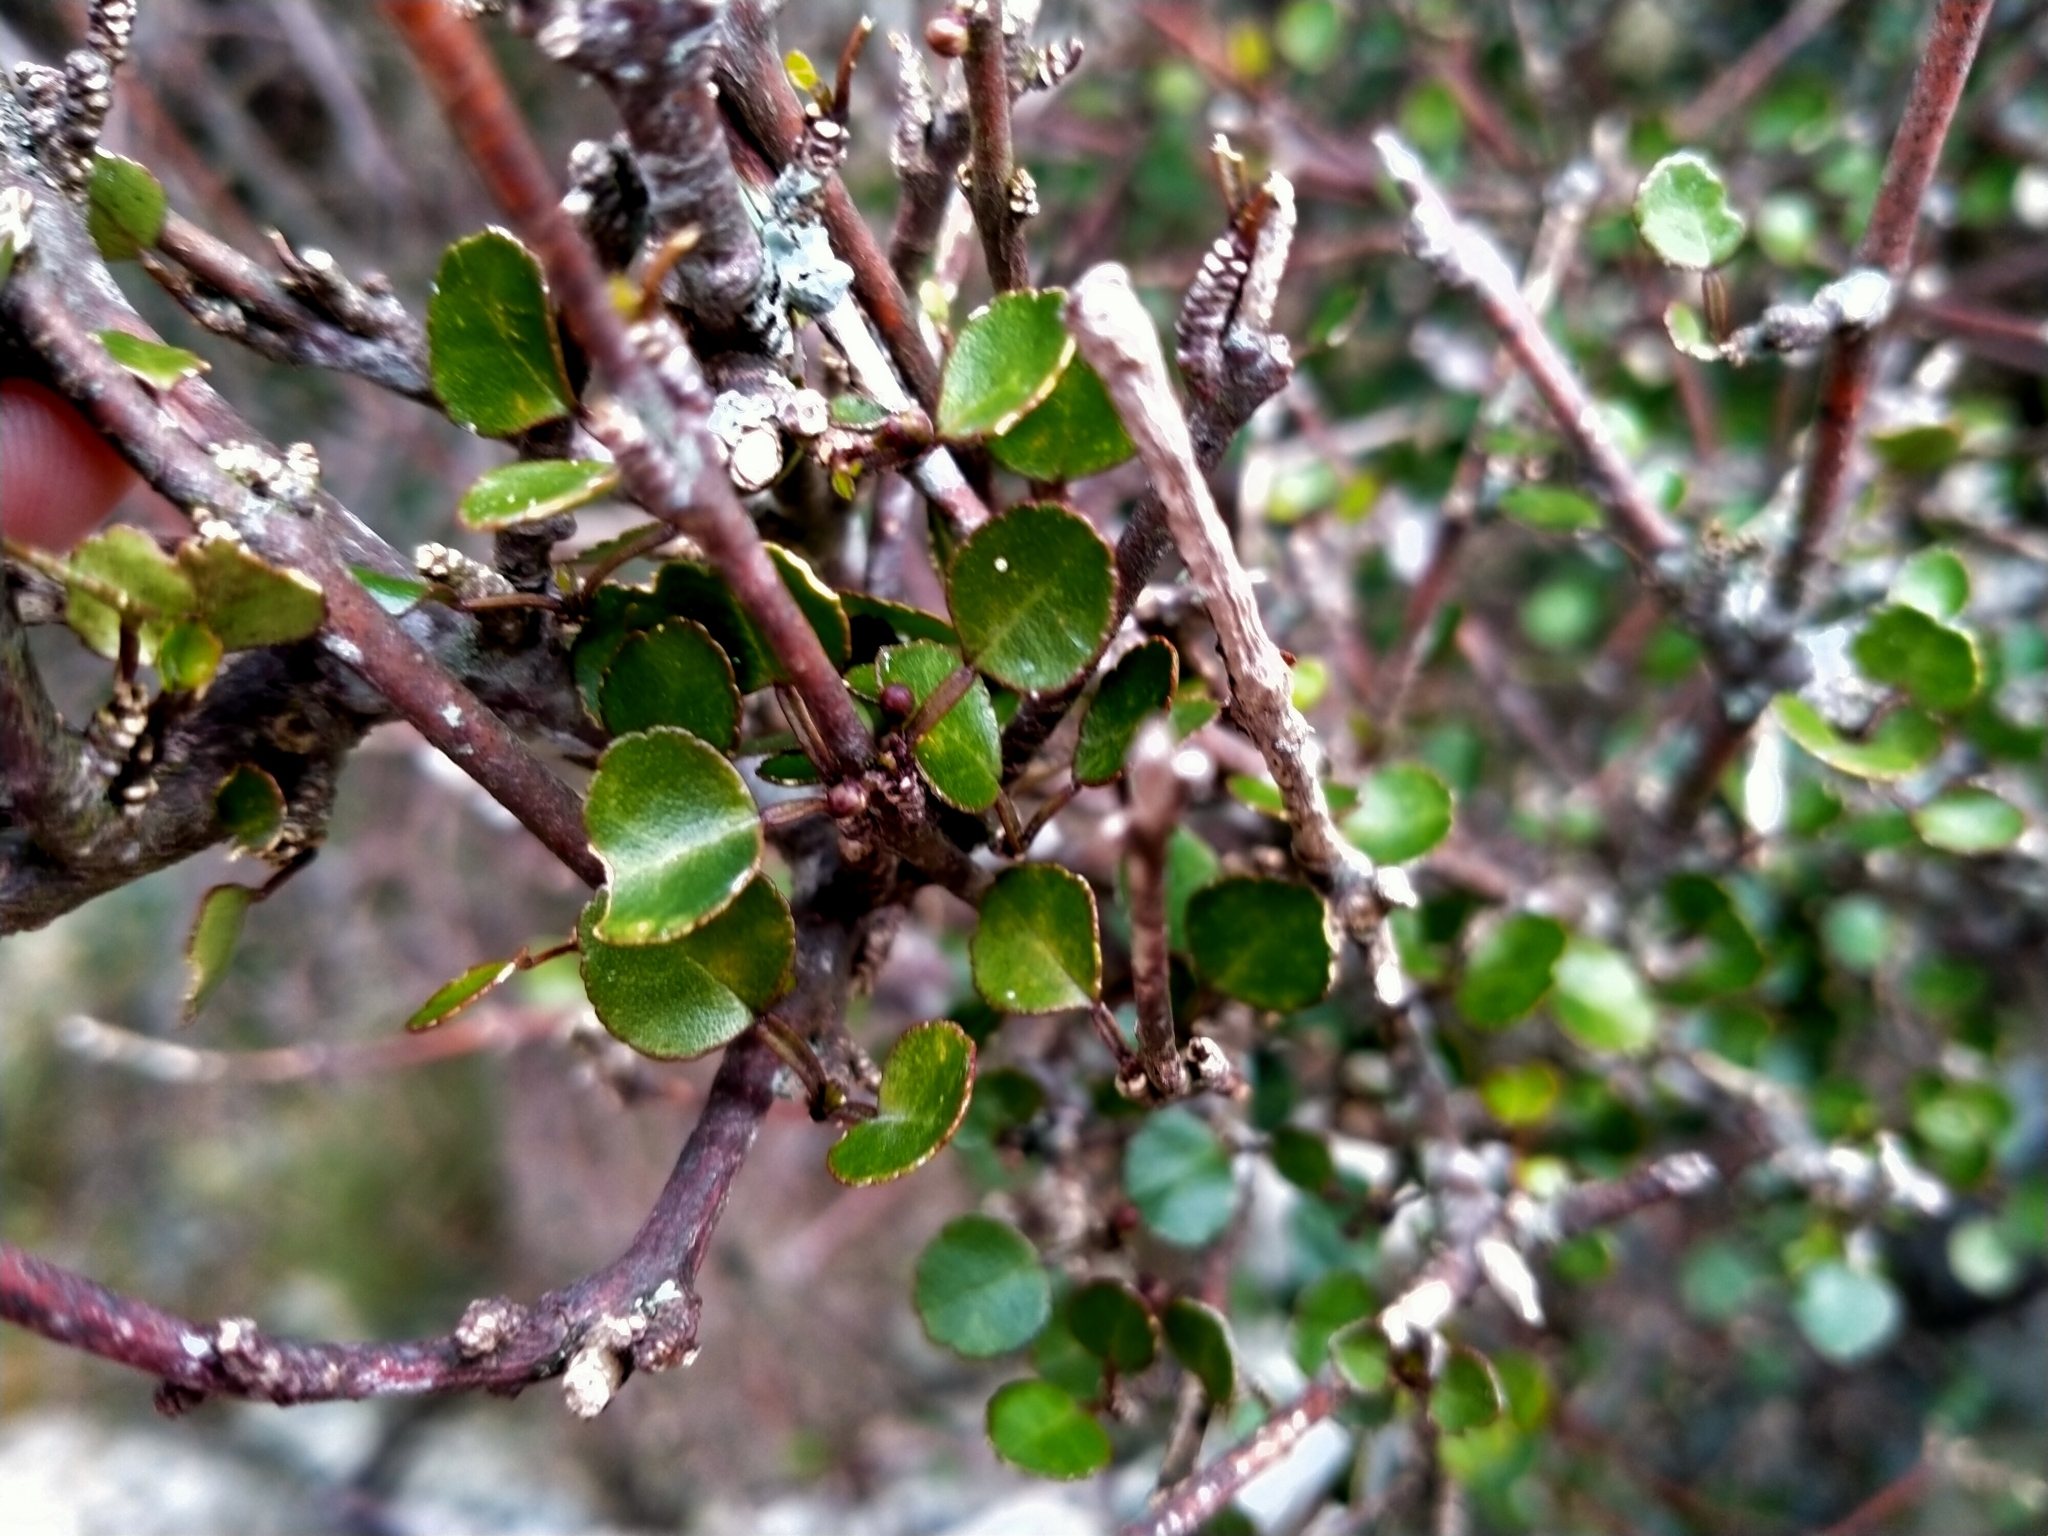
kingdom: Plantae
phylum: Tracheophyta
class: Magnoliopsida
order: Sapindales
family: Rutaceae
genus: Melicope
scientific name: Melicope simplex
